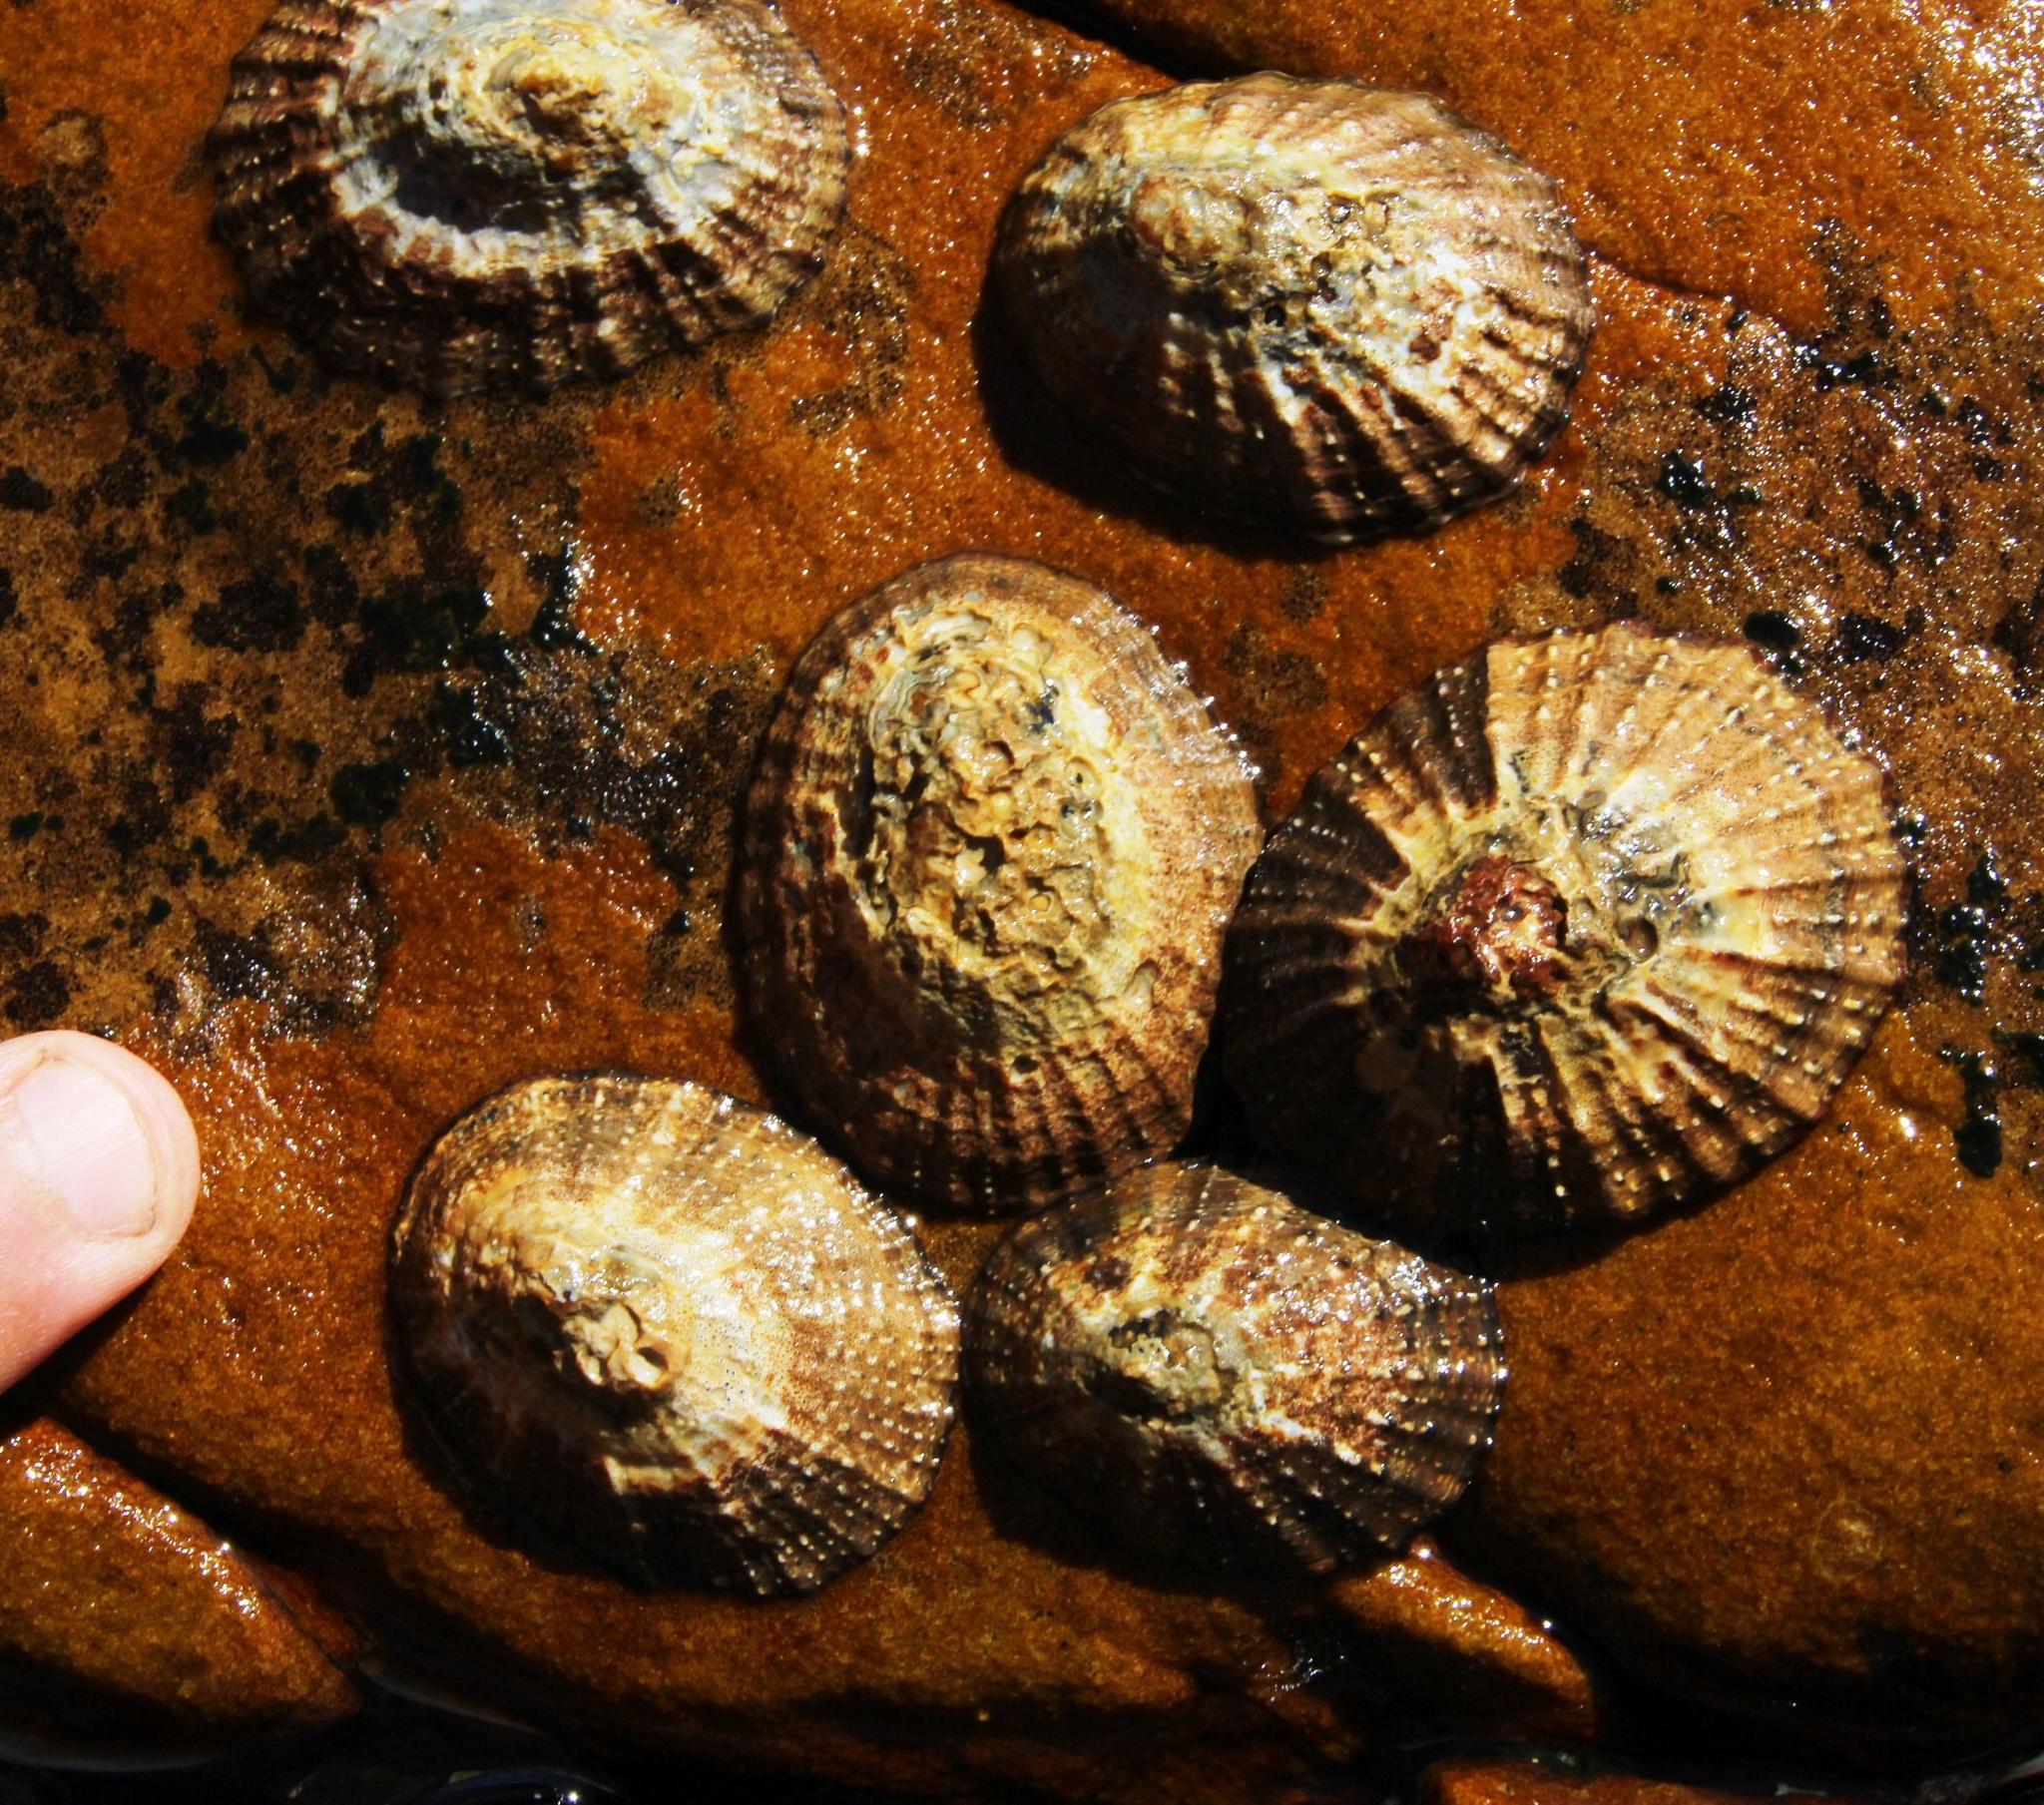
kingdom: Animalia
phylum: Mollusca
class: Gastropoda
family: Patellidae
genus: Scutellastra
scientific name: Scutellastra granularis
